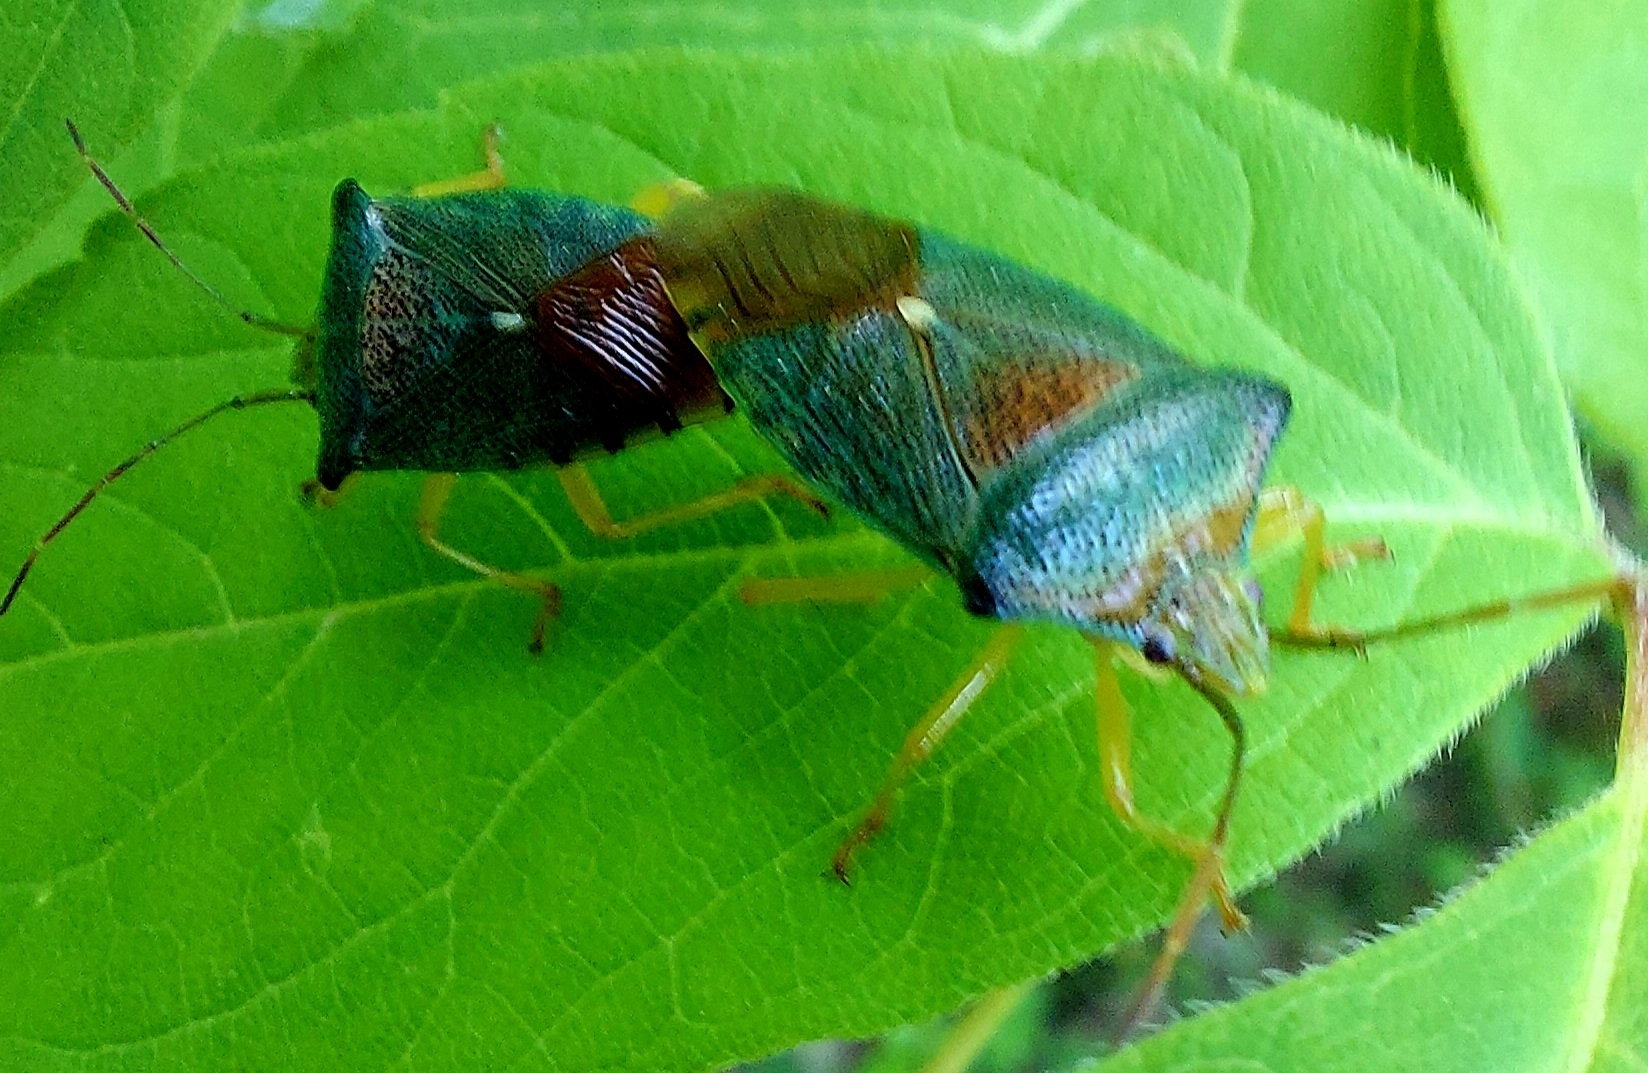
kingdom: Animalia
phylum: Arthropoda
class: Insecta
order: Hemiptera
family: Acanthosomatidae
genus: Acanthosoma
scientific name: Acanthosoma denticaudum
